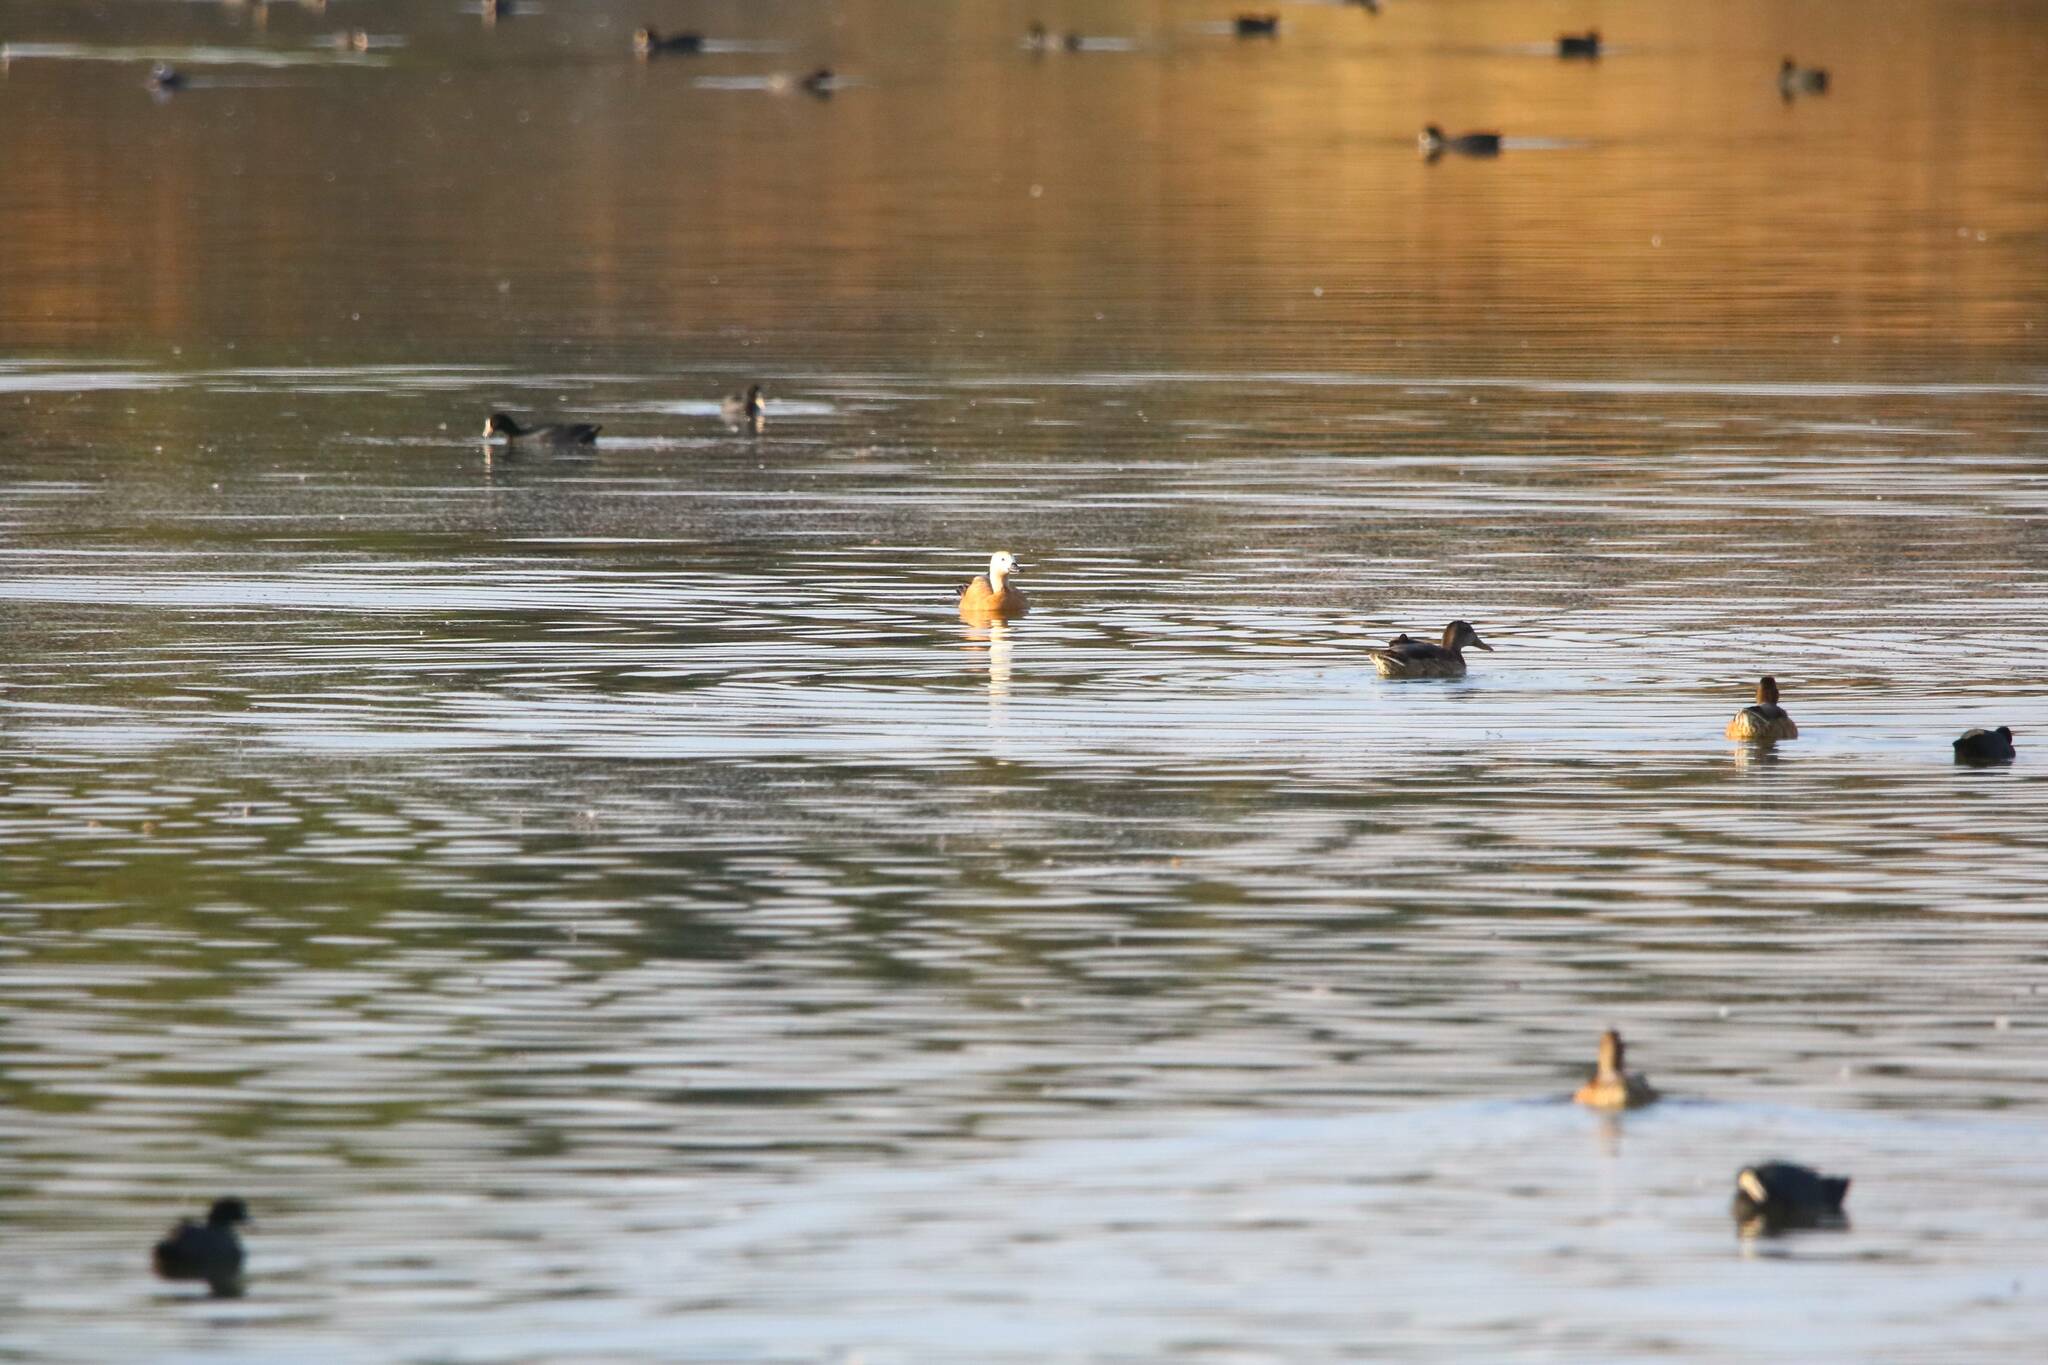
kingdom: Animalia
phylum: Chordata
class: Aves
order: Anseriformes
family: Anatidae
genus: Tadorna
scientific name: Tadorna ferruginea
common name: Ruddy shelduck
